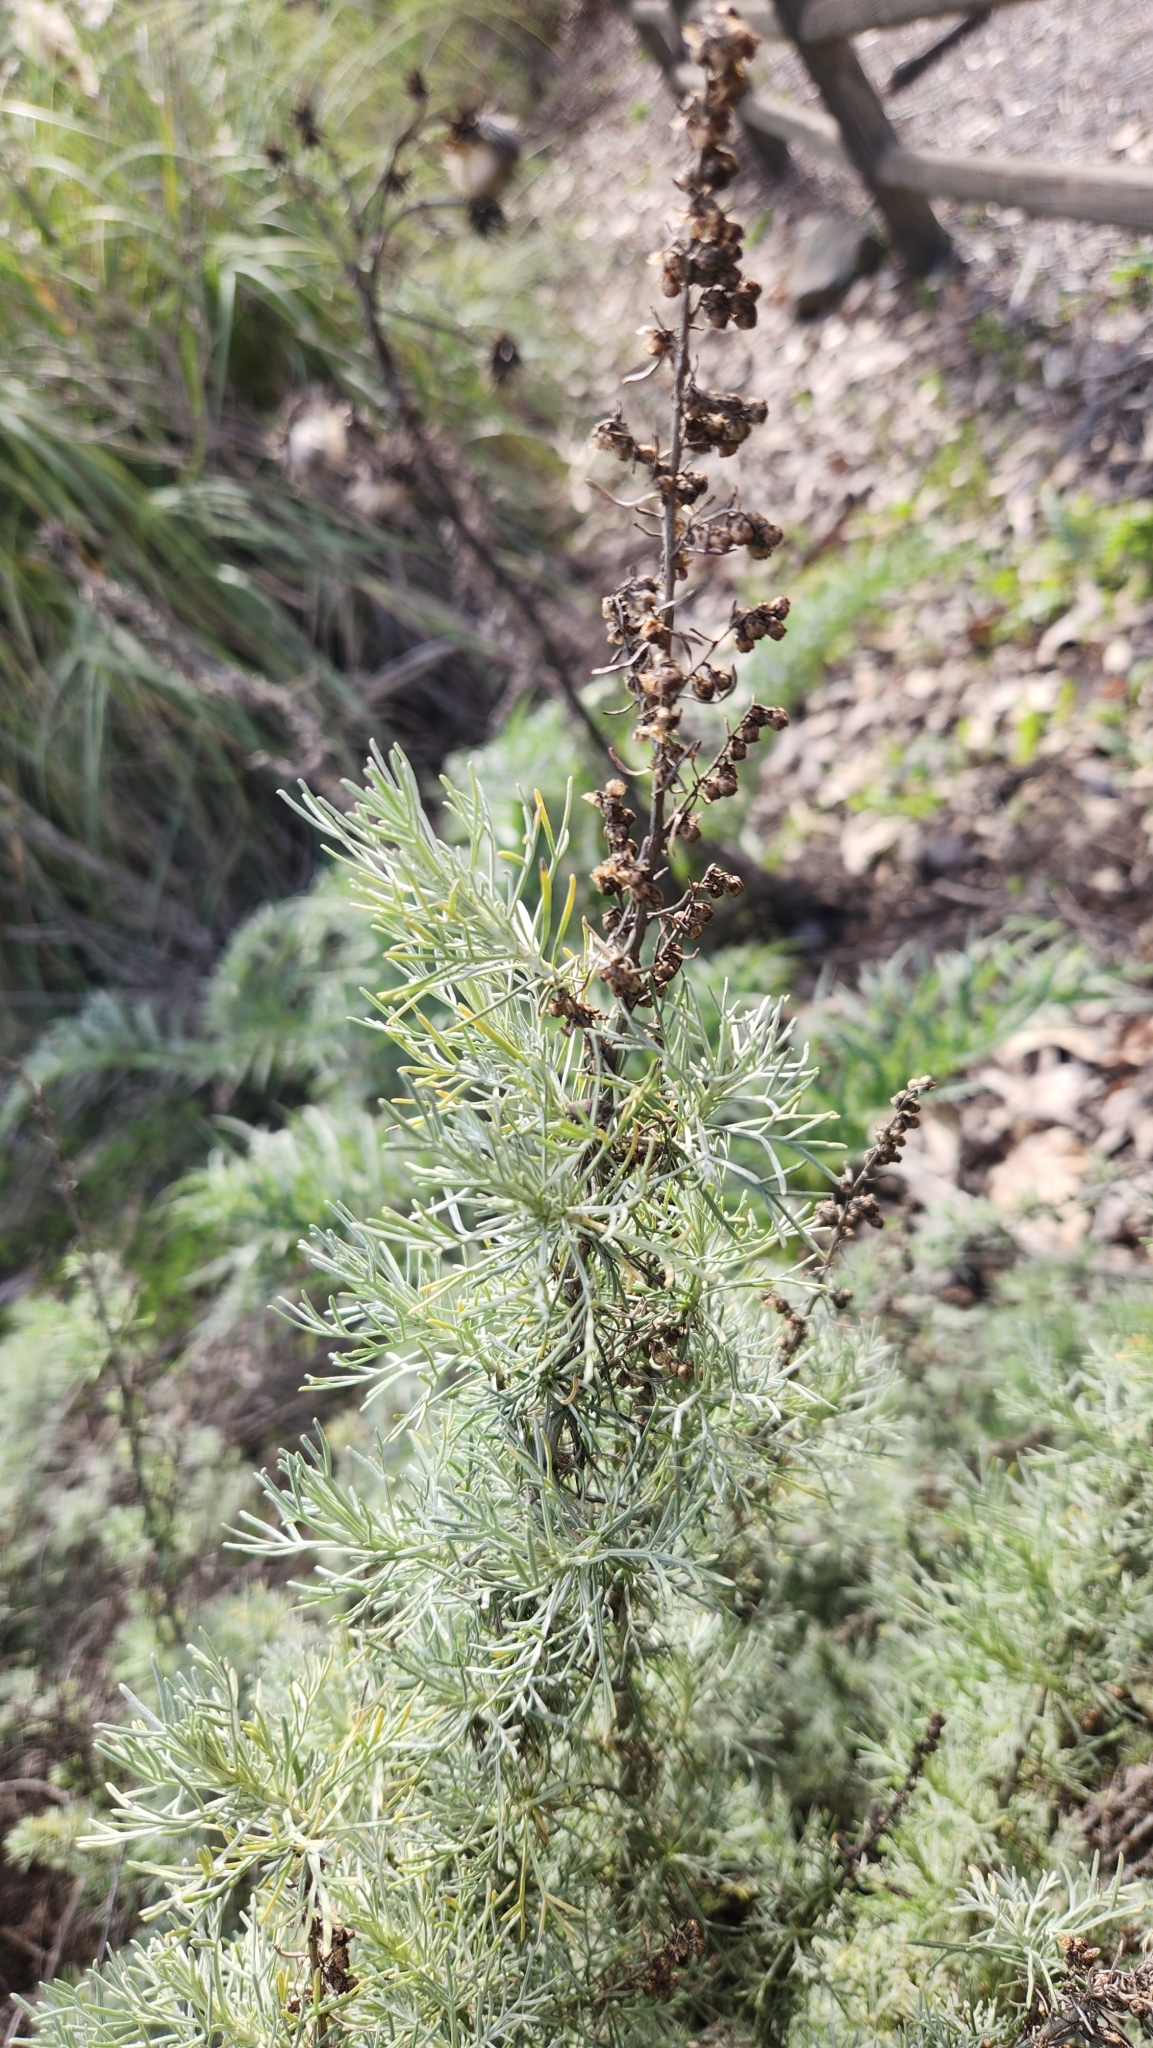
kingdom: Plantae
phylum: Tracheophyta
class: Magnoliopsida
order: Asterales
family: Asteraceae
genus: Artemisia
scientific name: Artemisia californica
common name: California sagebrush
